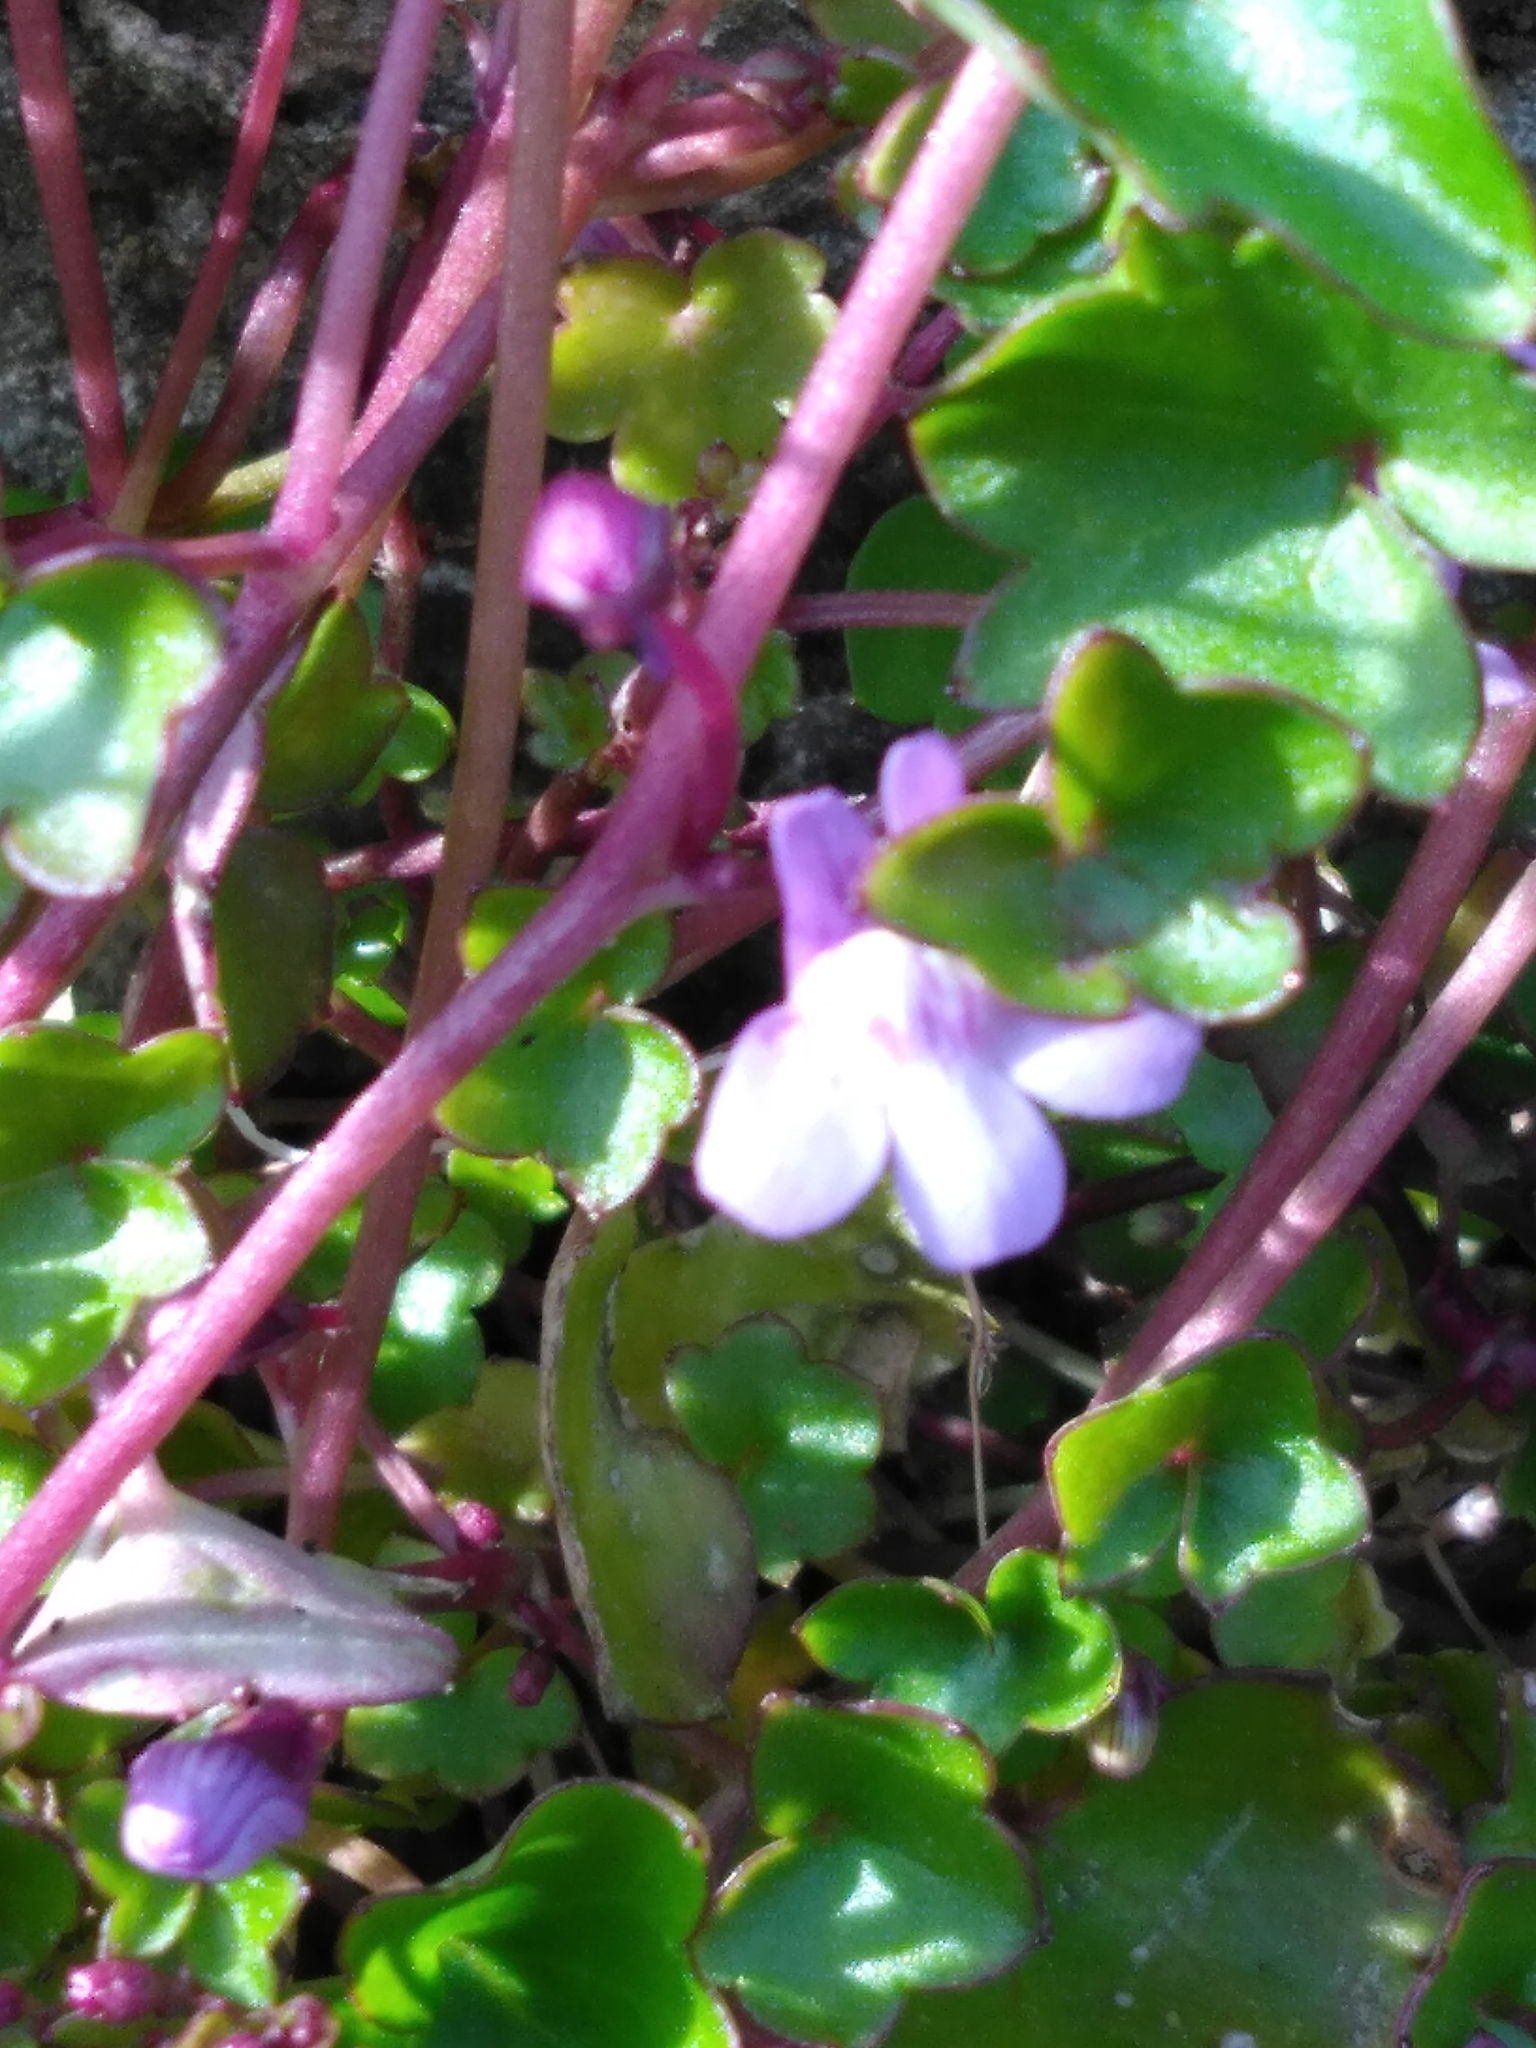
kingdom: Plantae
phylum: Tracheophyta
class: Magnoliopsida
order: Lamiales
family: Plantaginaceae
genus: Cymbalaria
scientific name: Cymbalaria muralis
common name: Ivy-leaved toadflax
